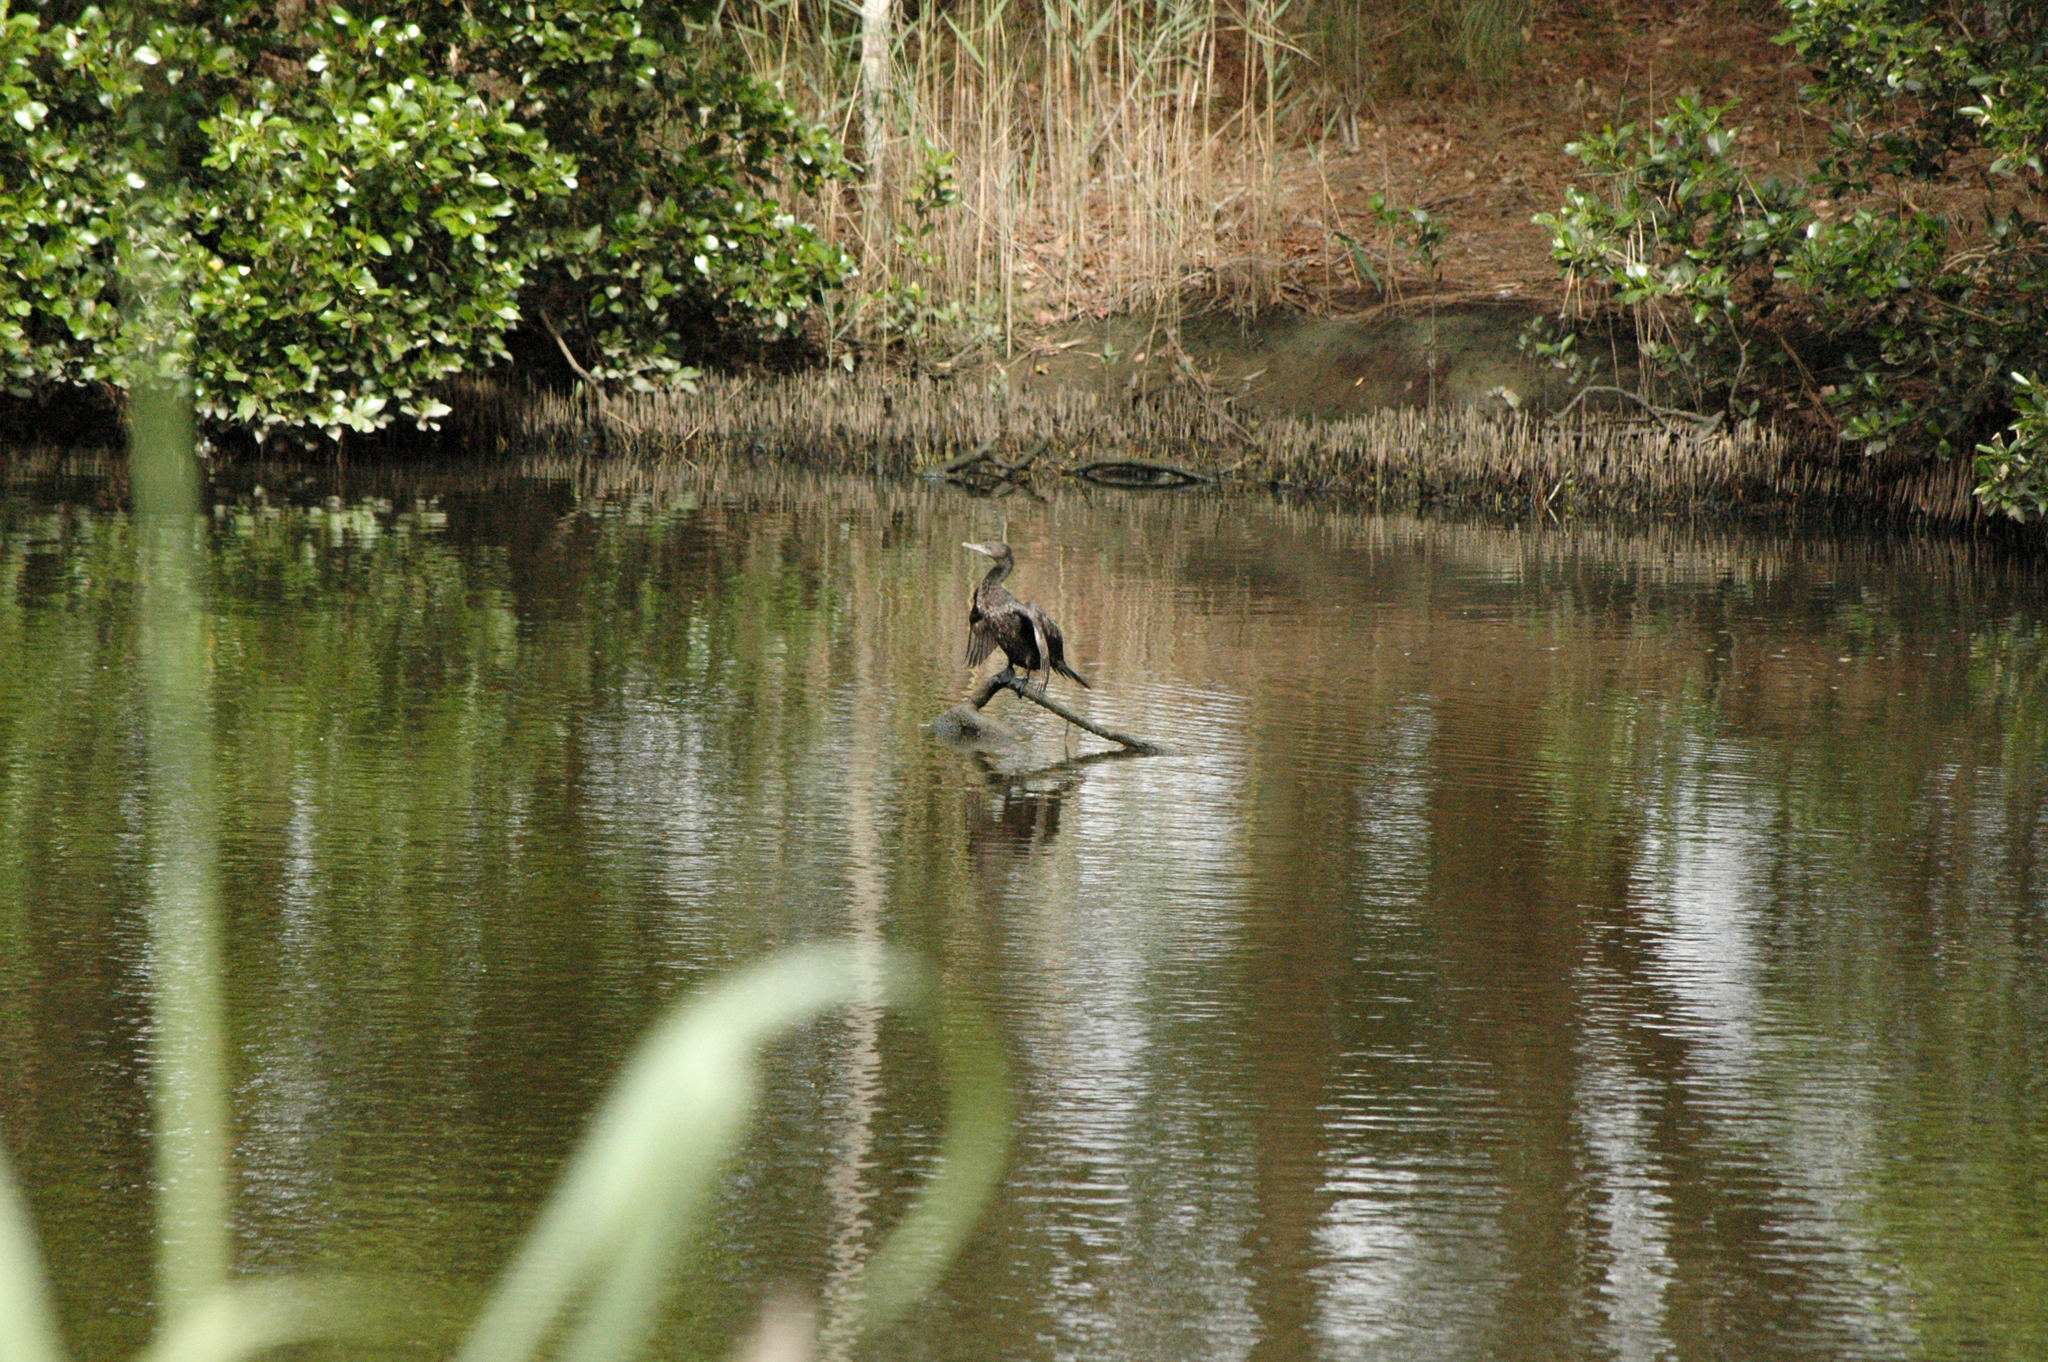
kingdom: Animalia
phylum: Chordata
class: Aves
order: Suliformes
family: Phalacrocoracidae
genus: Phalacrocorax
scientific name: Phalacrocorax sulcirostris
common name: Little black cormorant
